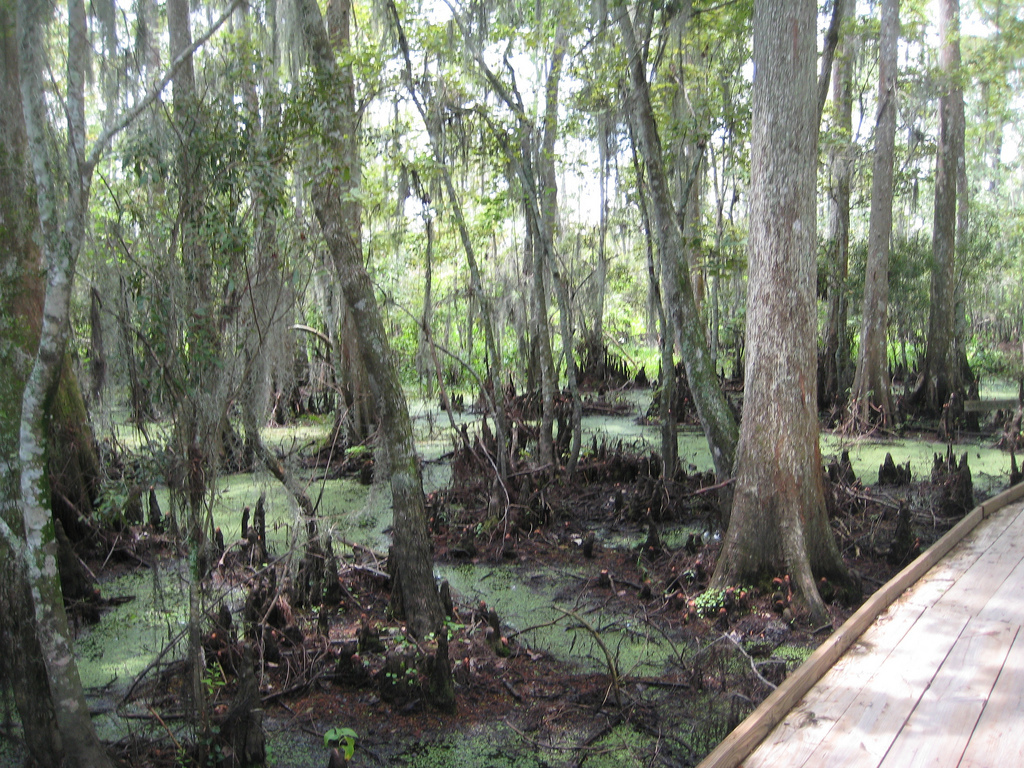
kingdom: Plantae
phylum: Tracheophyta
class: Pinopsida
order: Pinales
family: Cupressaceae
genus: Taxodium
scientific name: Taxodium distichum
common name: Bald cypress
